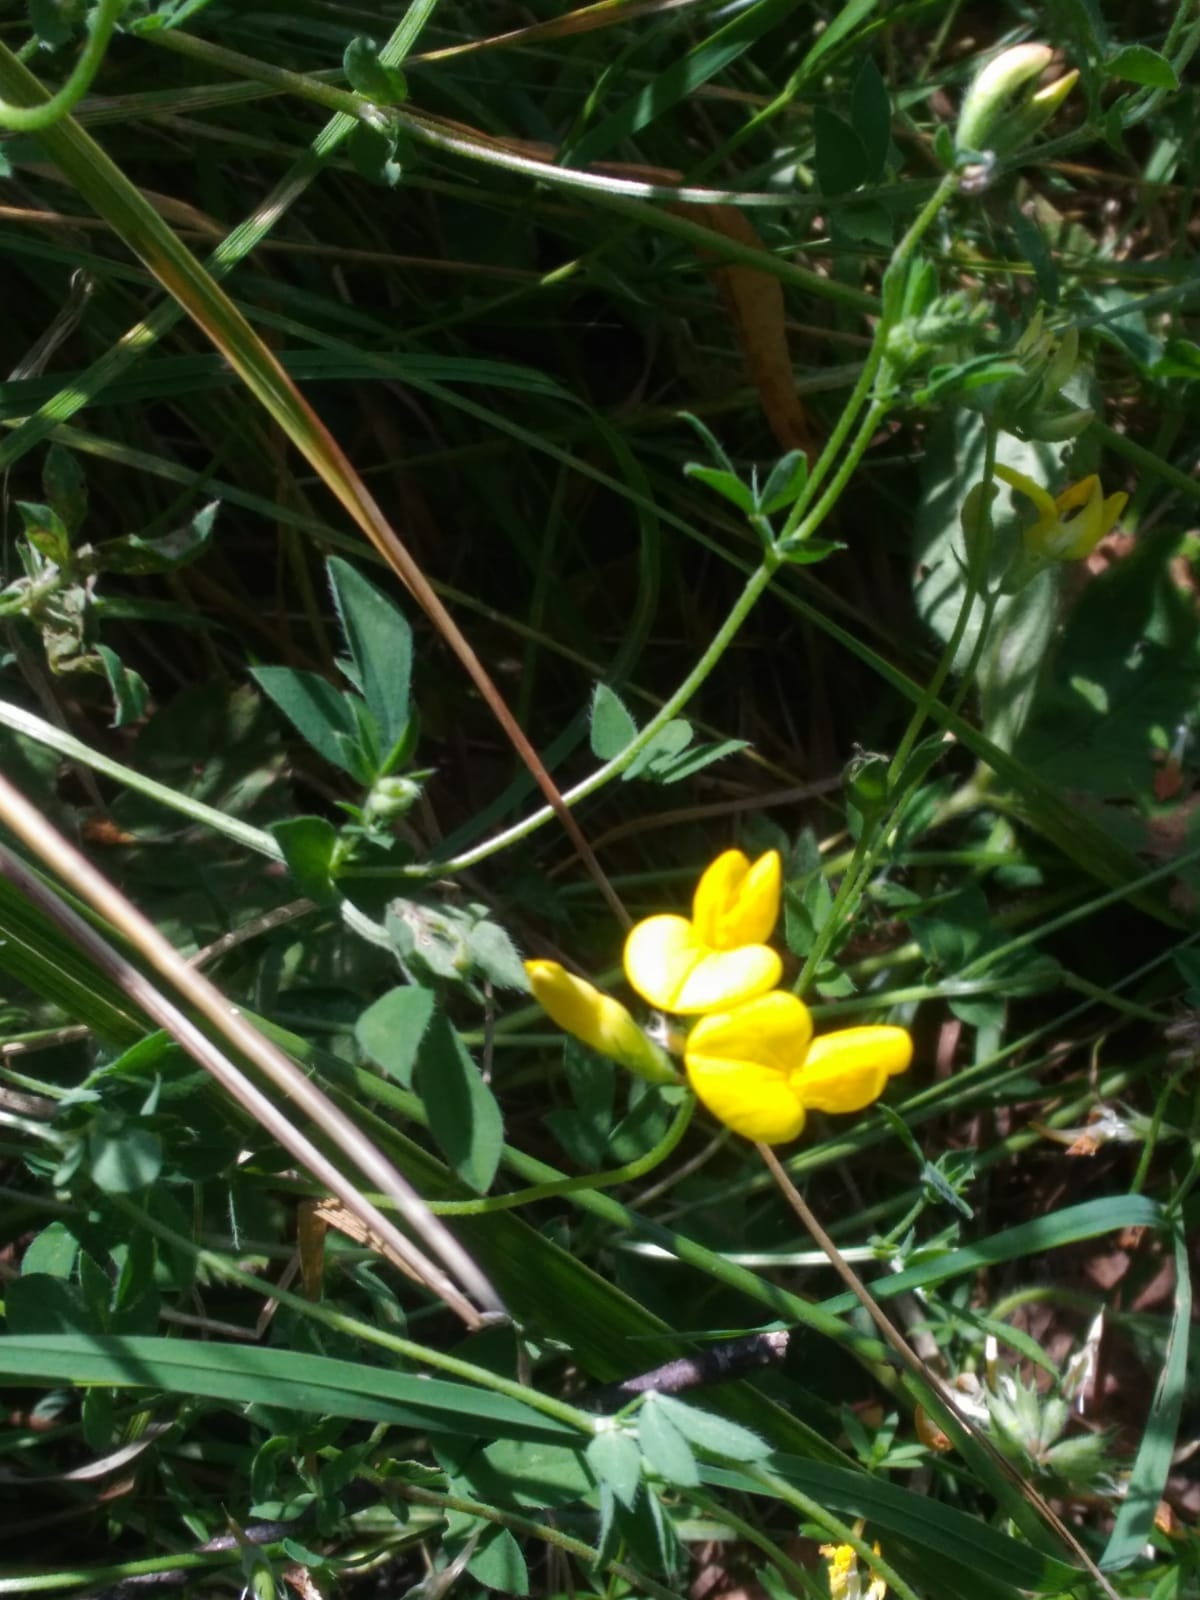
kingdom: Plantae
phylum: Tracheophyta
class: Magnoliopsida
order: Fabales
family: Fabaceae
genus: Lotus
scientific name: Lotus corniculatus
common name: Common bird's-foot-trefoil
